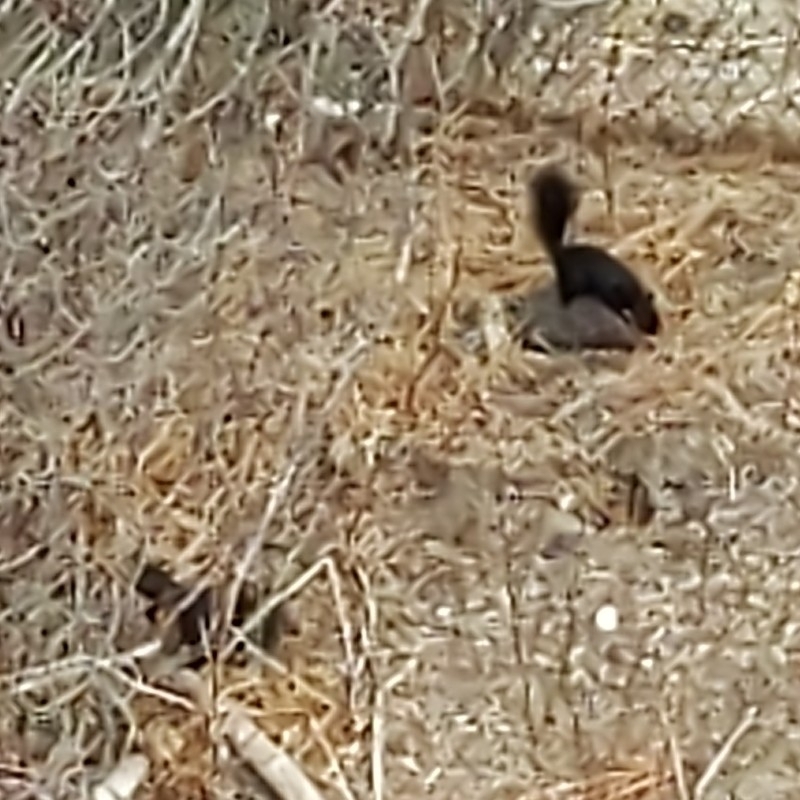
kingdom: Animalia
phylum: Chordata
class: Mammalia
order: Rodentia
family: Sciuridae
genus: Sciurus
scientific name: Sciurus carolinensis
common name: Eastern gray squirrel
